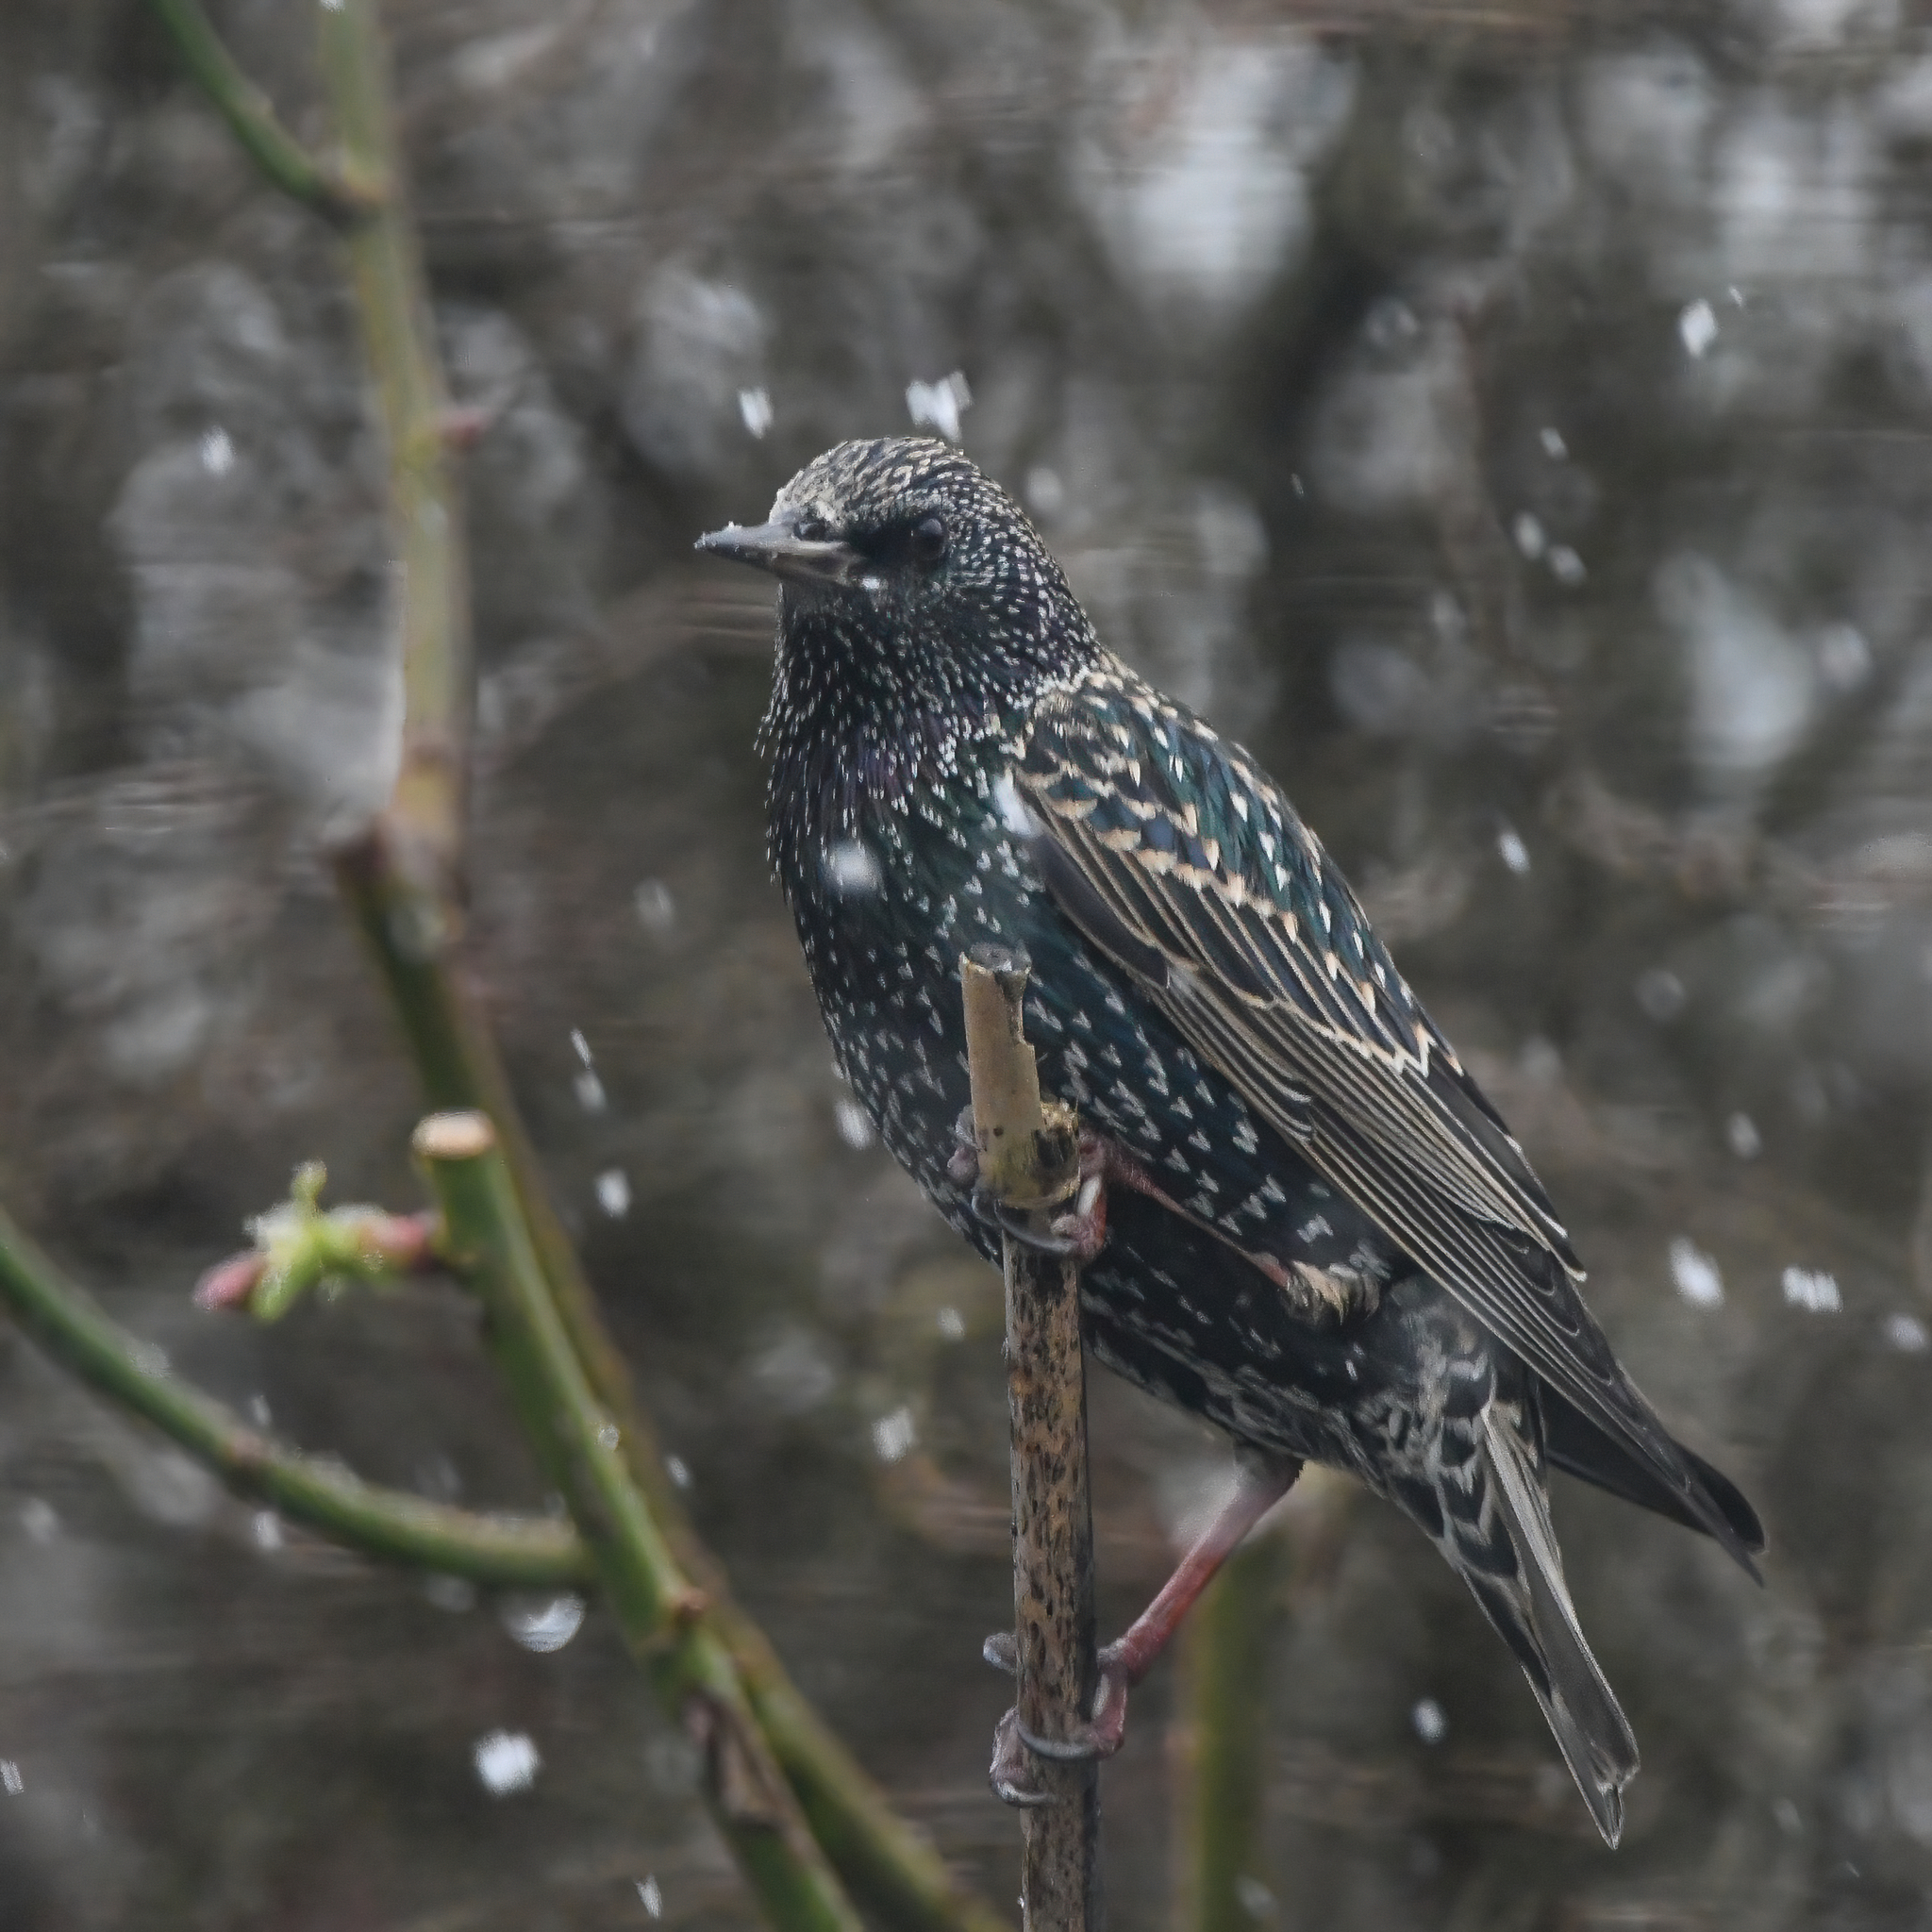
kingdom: Animalia
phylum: Chordata
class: Aves
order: Passeriformes
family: Sturnidae
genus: Sturnus
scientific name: Sturnus vulgaris
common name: Common starling
